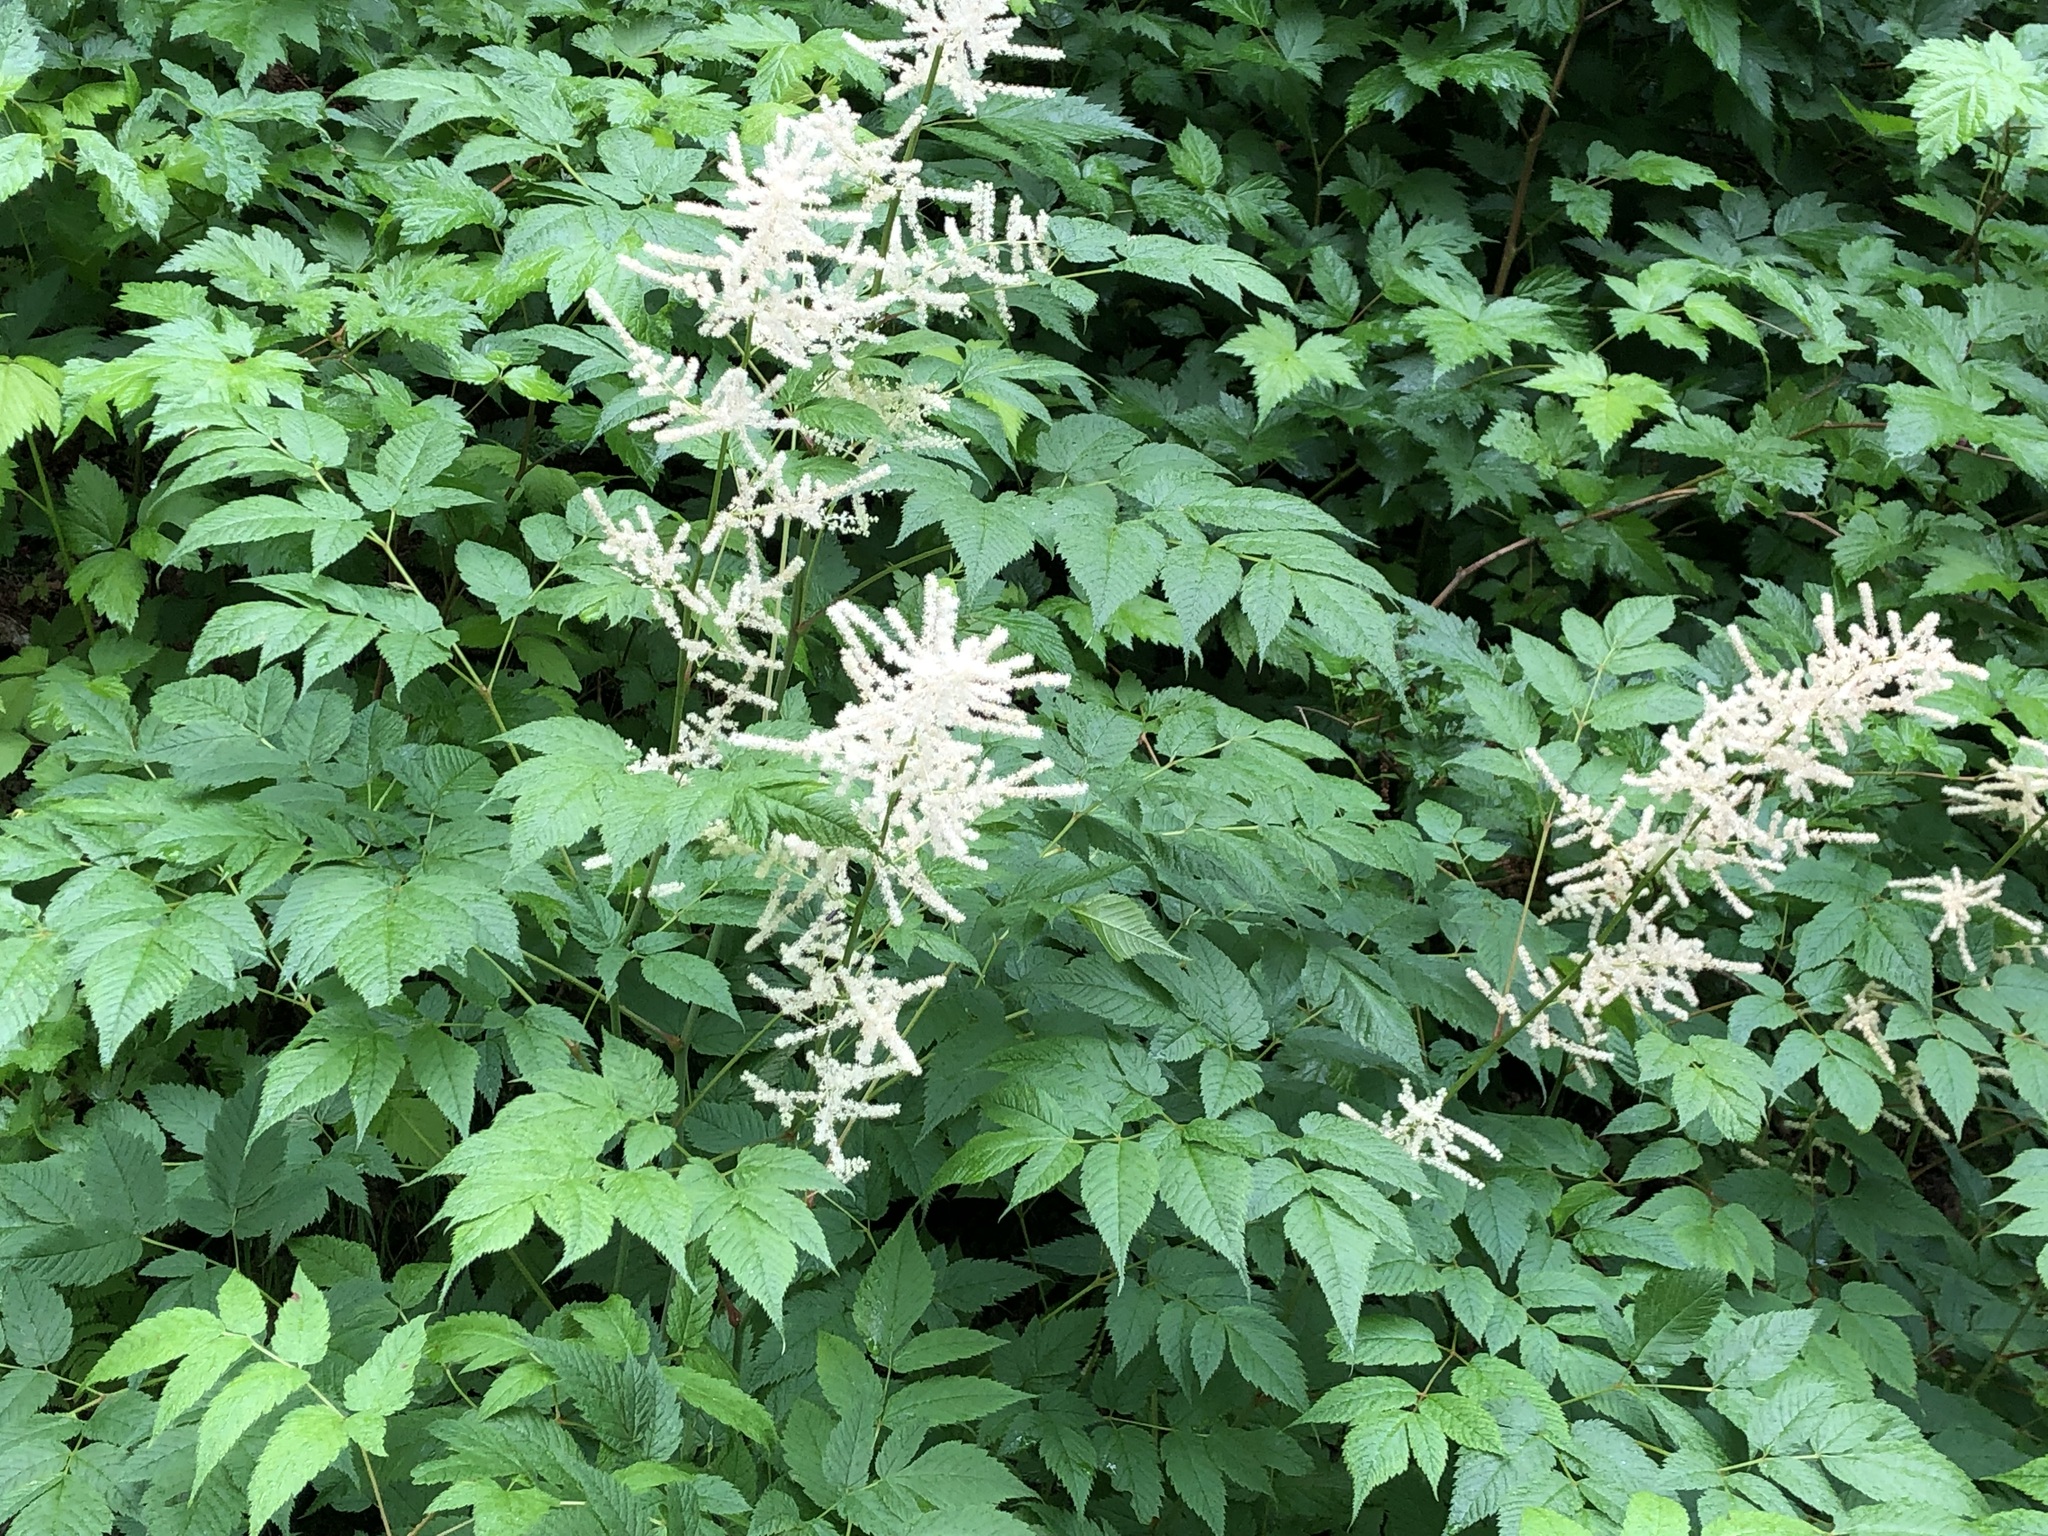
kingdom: Plantae
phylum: Tracheophyta
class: Magnoliopsida
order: Rosales
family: Rosaceae
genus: Aruncus
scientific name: Aruncus dioicus
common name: Buck's-beard
